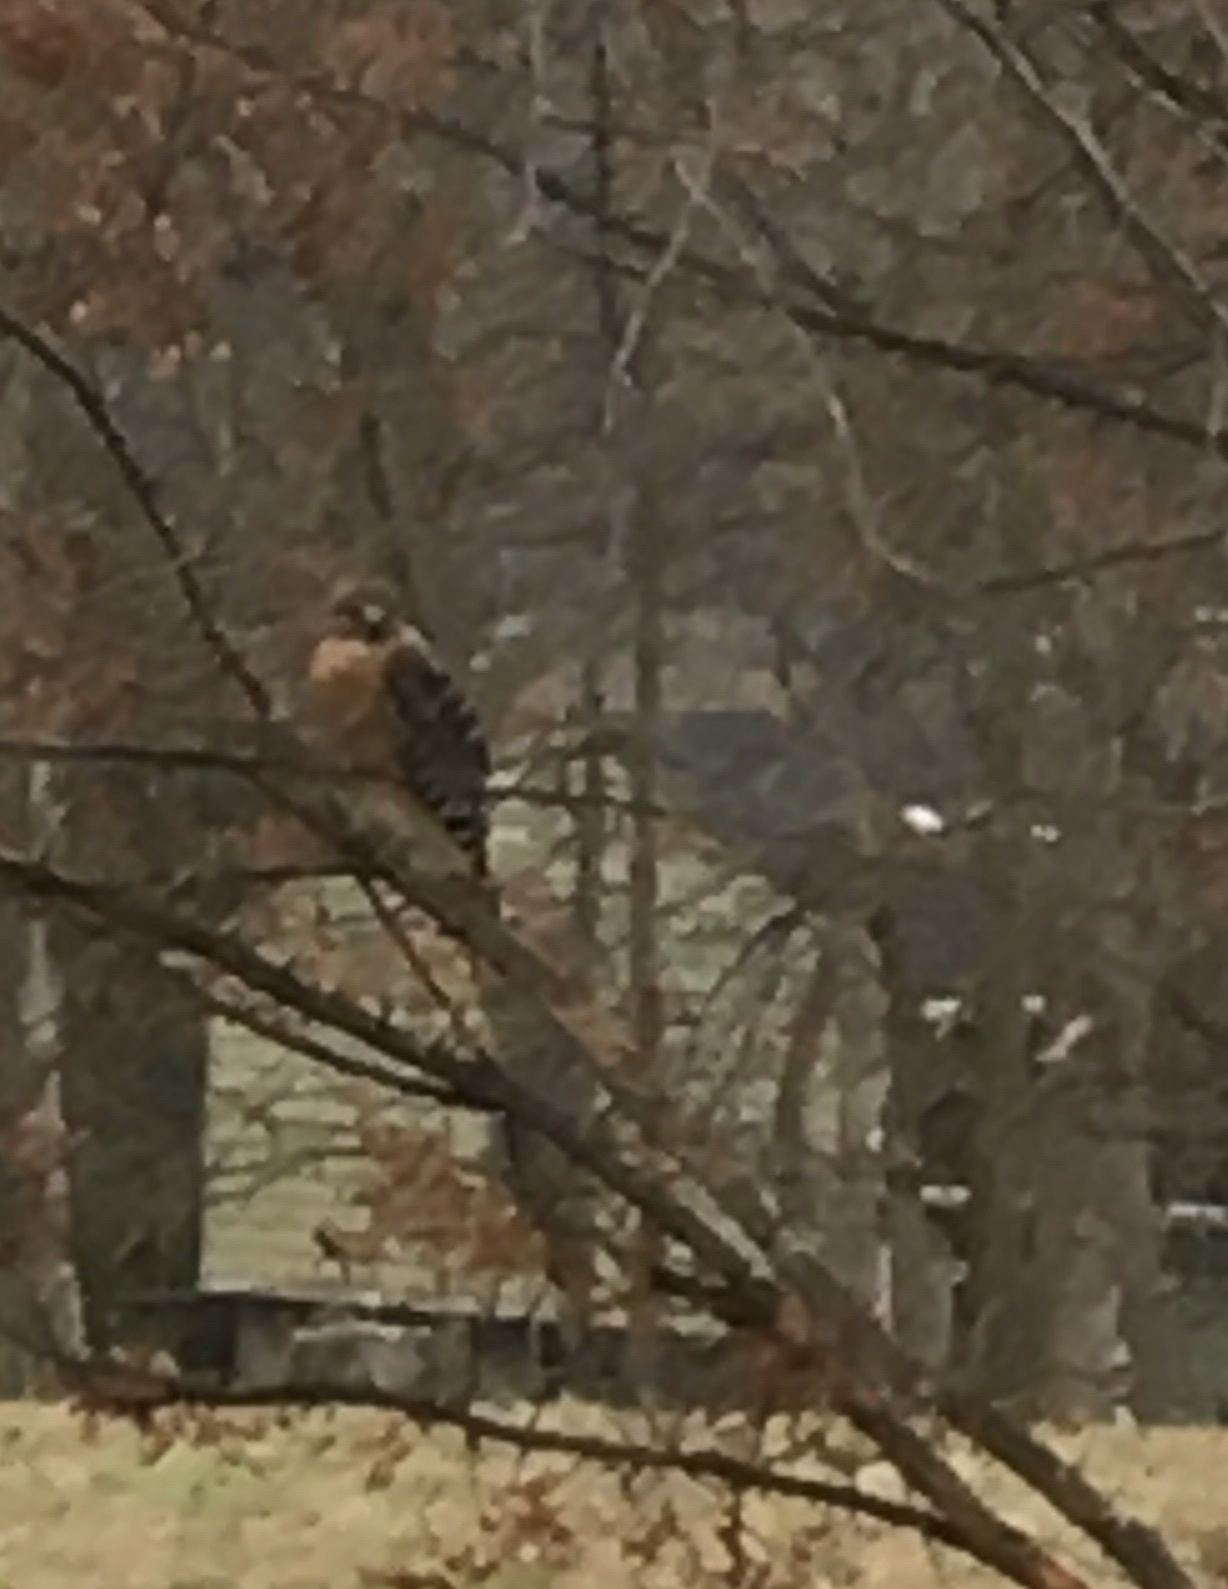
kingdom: Animalia
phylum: Chordata
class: Aves
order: Accipitriformes
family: Accipitridae
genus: Buteo
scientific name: Buteo lineatus
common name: Red-shouldered hawk
